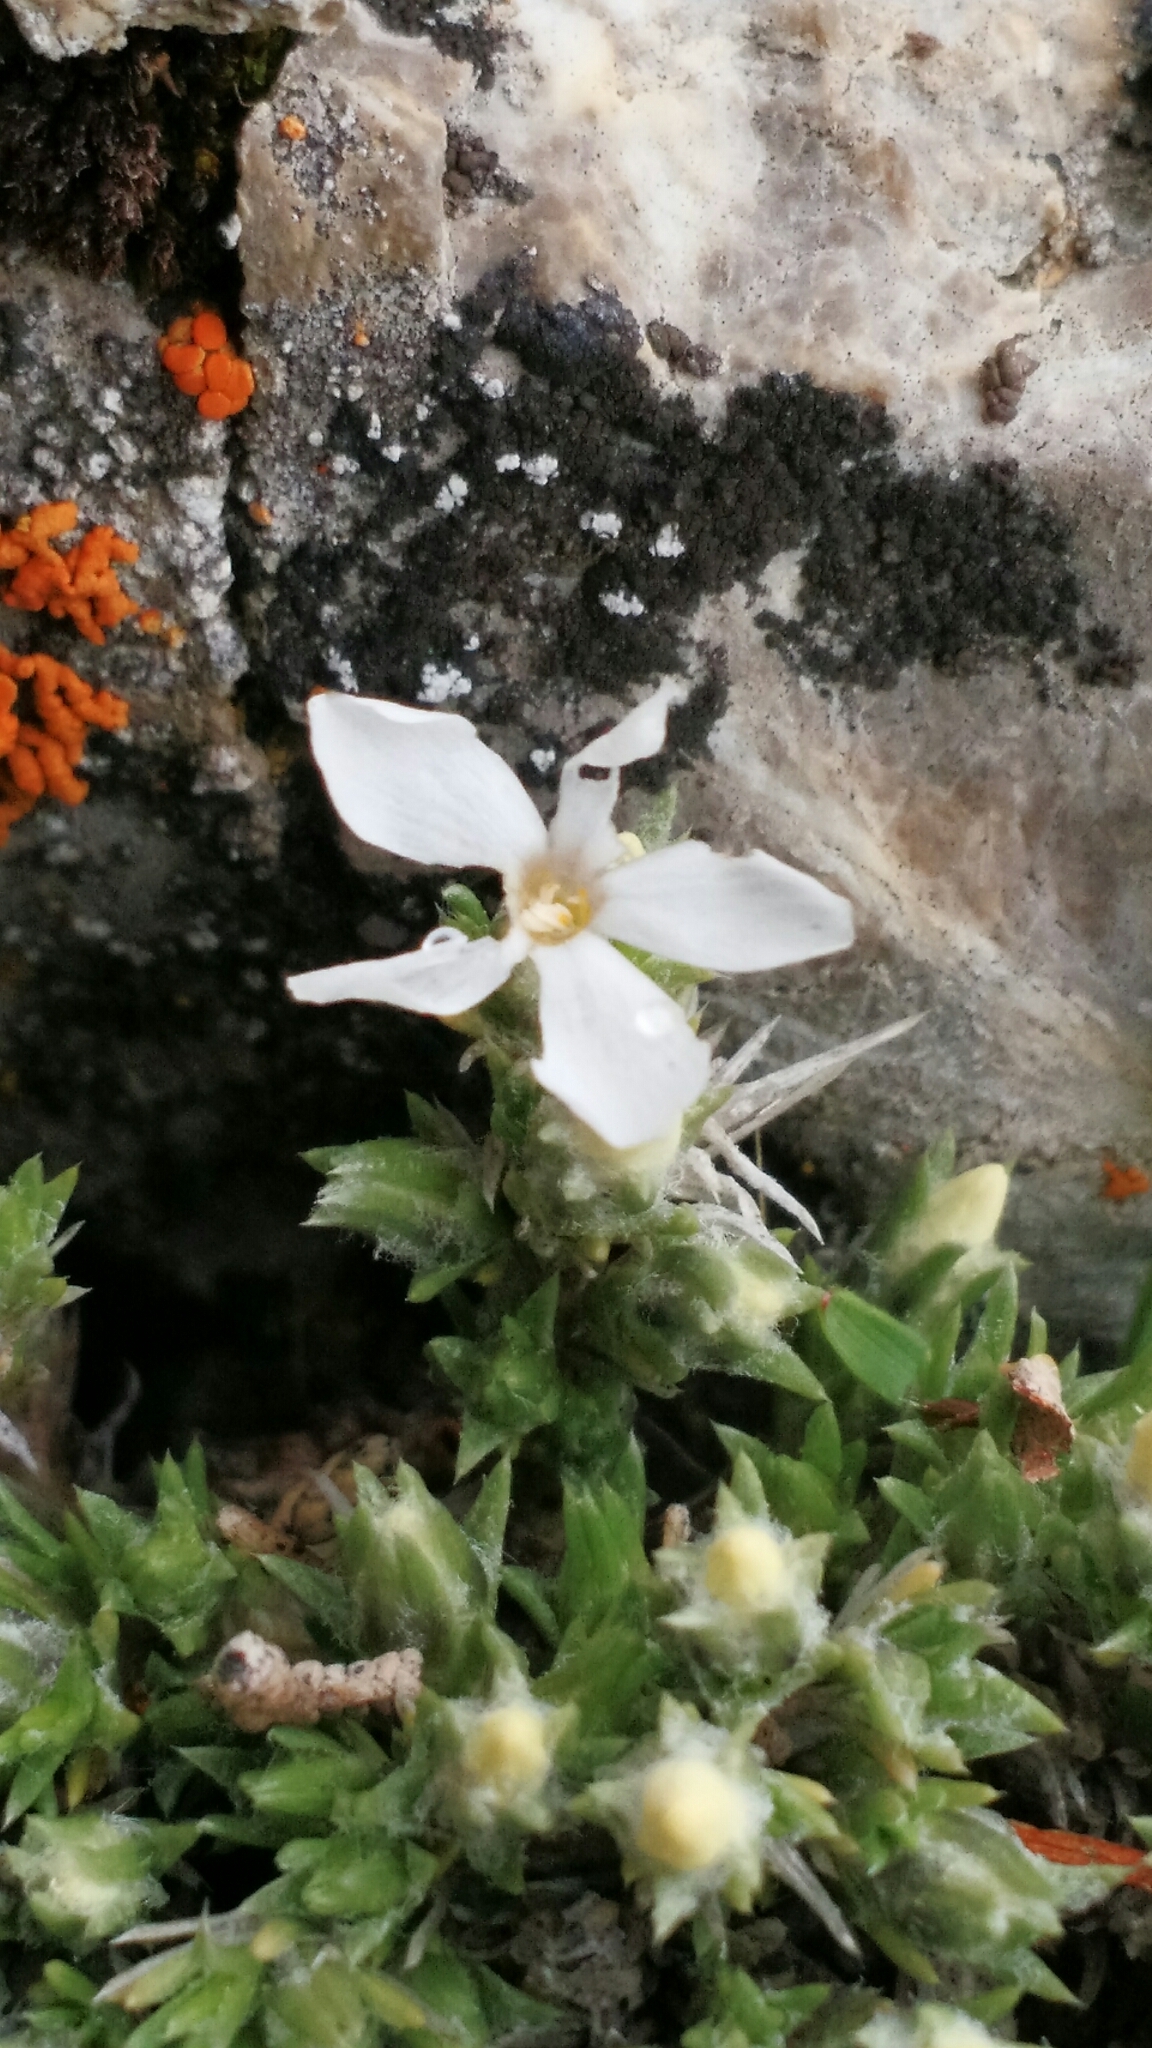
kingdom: Plantae
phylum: Tracheophyta
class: Magnoliopsida
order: Ericales
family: Polemoniaceae
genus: Phlox
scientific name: Phlox hoodii
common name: Moss phlox
